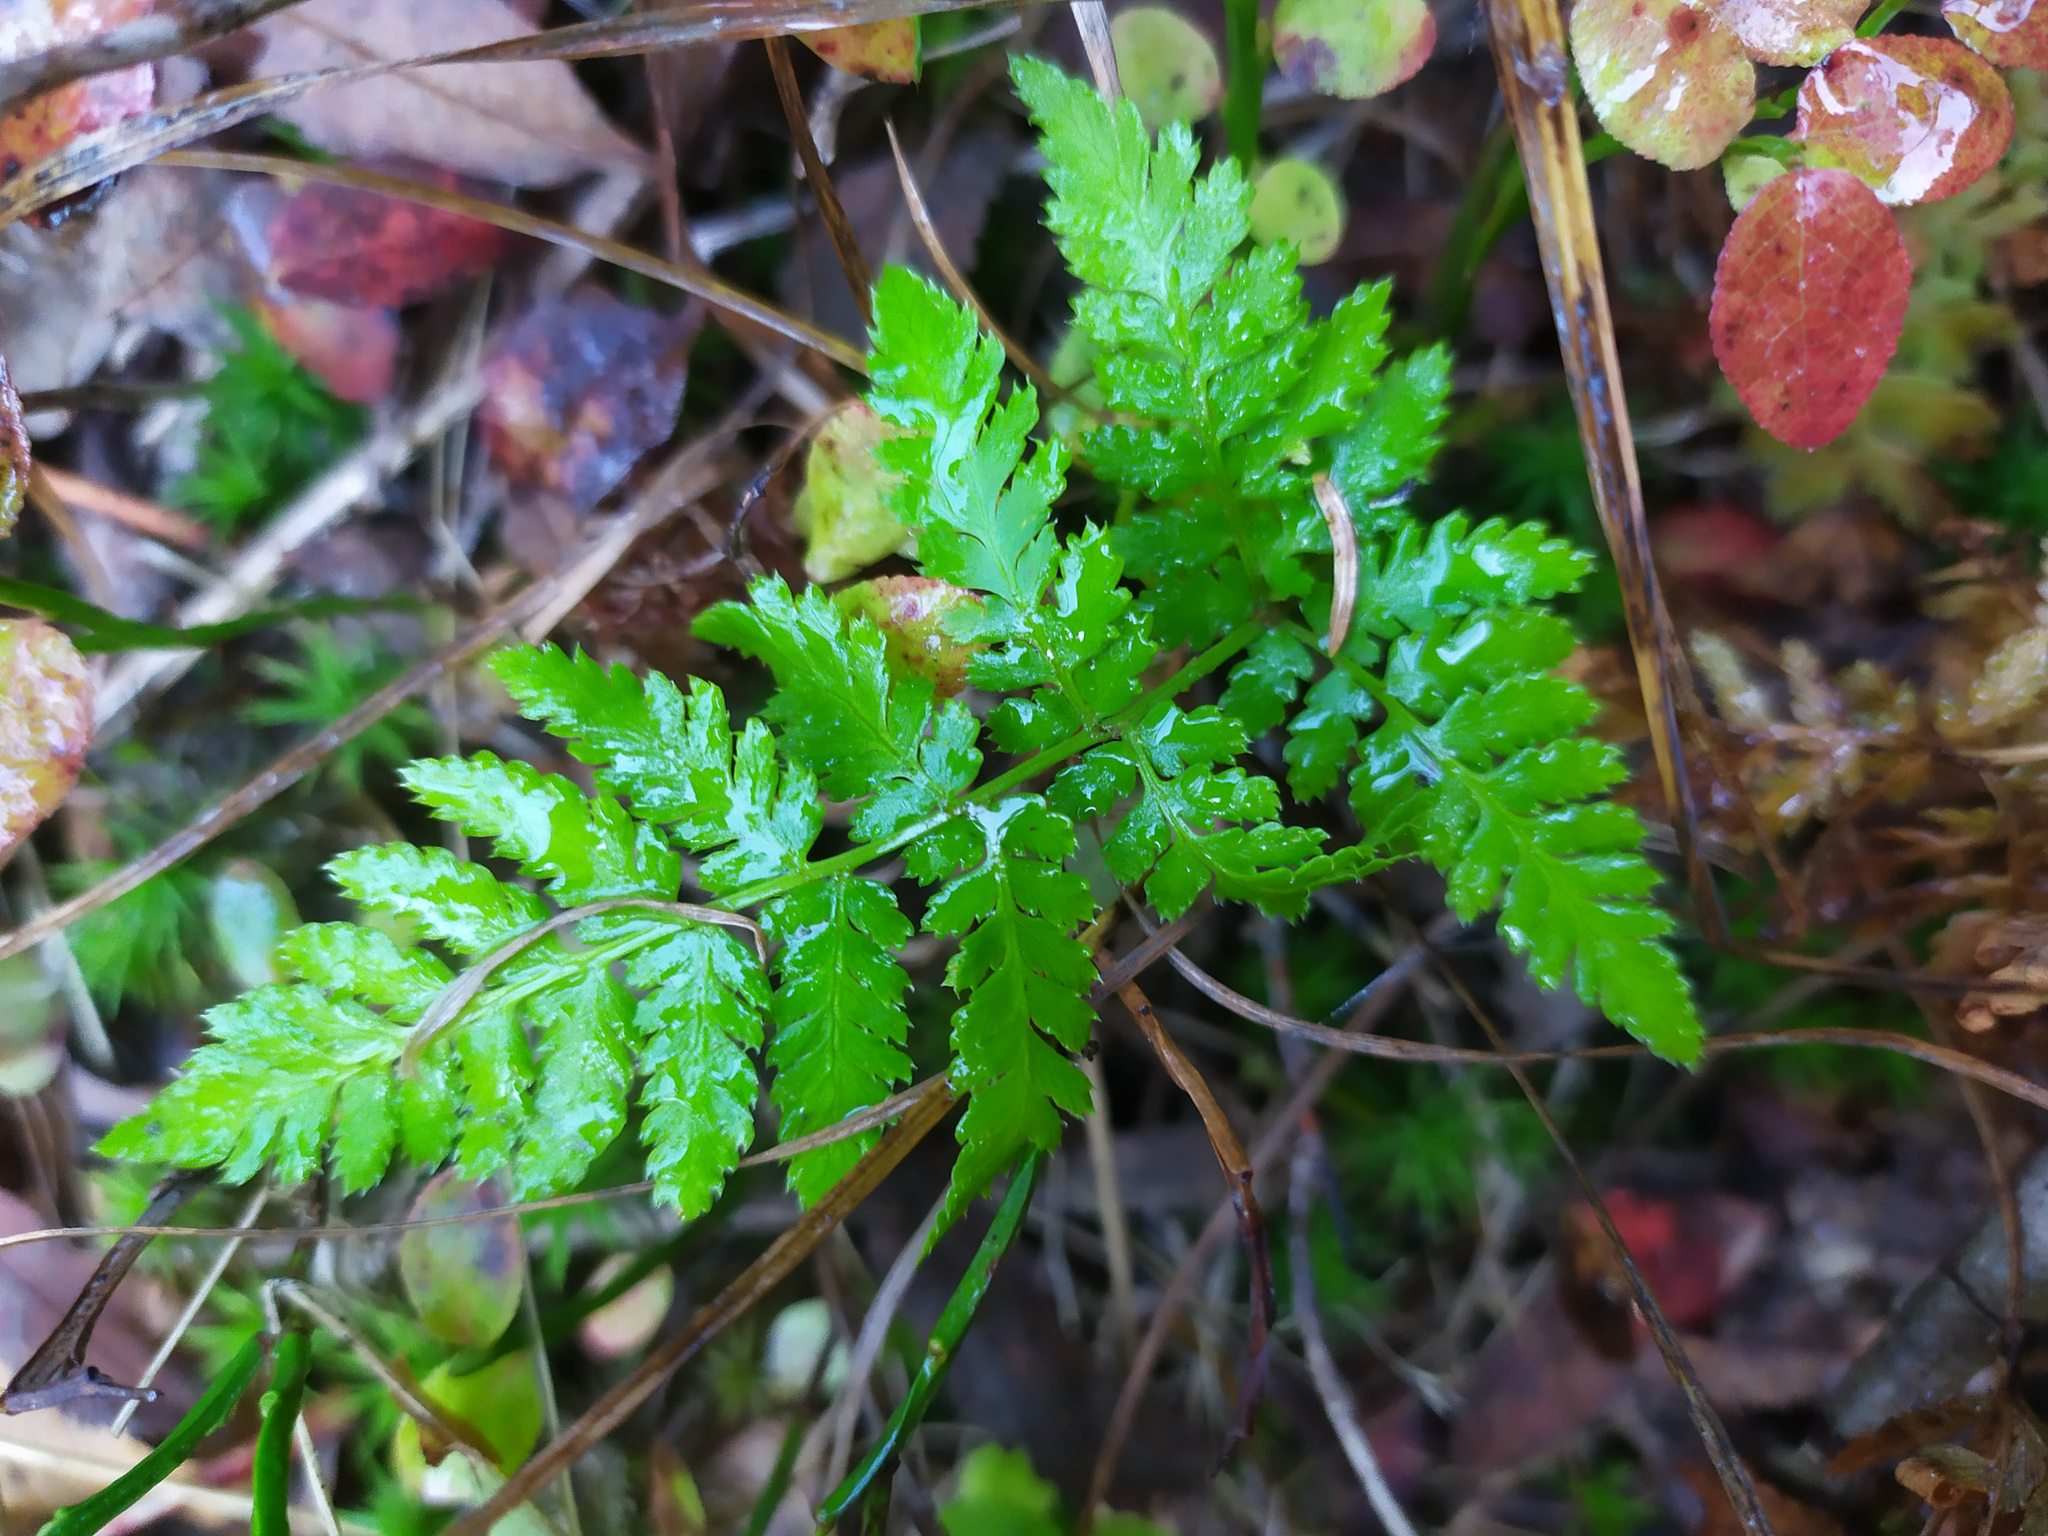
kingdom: Plantae
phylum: Tracheophyta
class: Polypodiopsida
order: Polypodiales
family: Dryopteridaceae
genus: Dryopteris
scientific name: Dryopteris carthusiana
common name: Narrow buckler-fern
